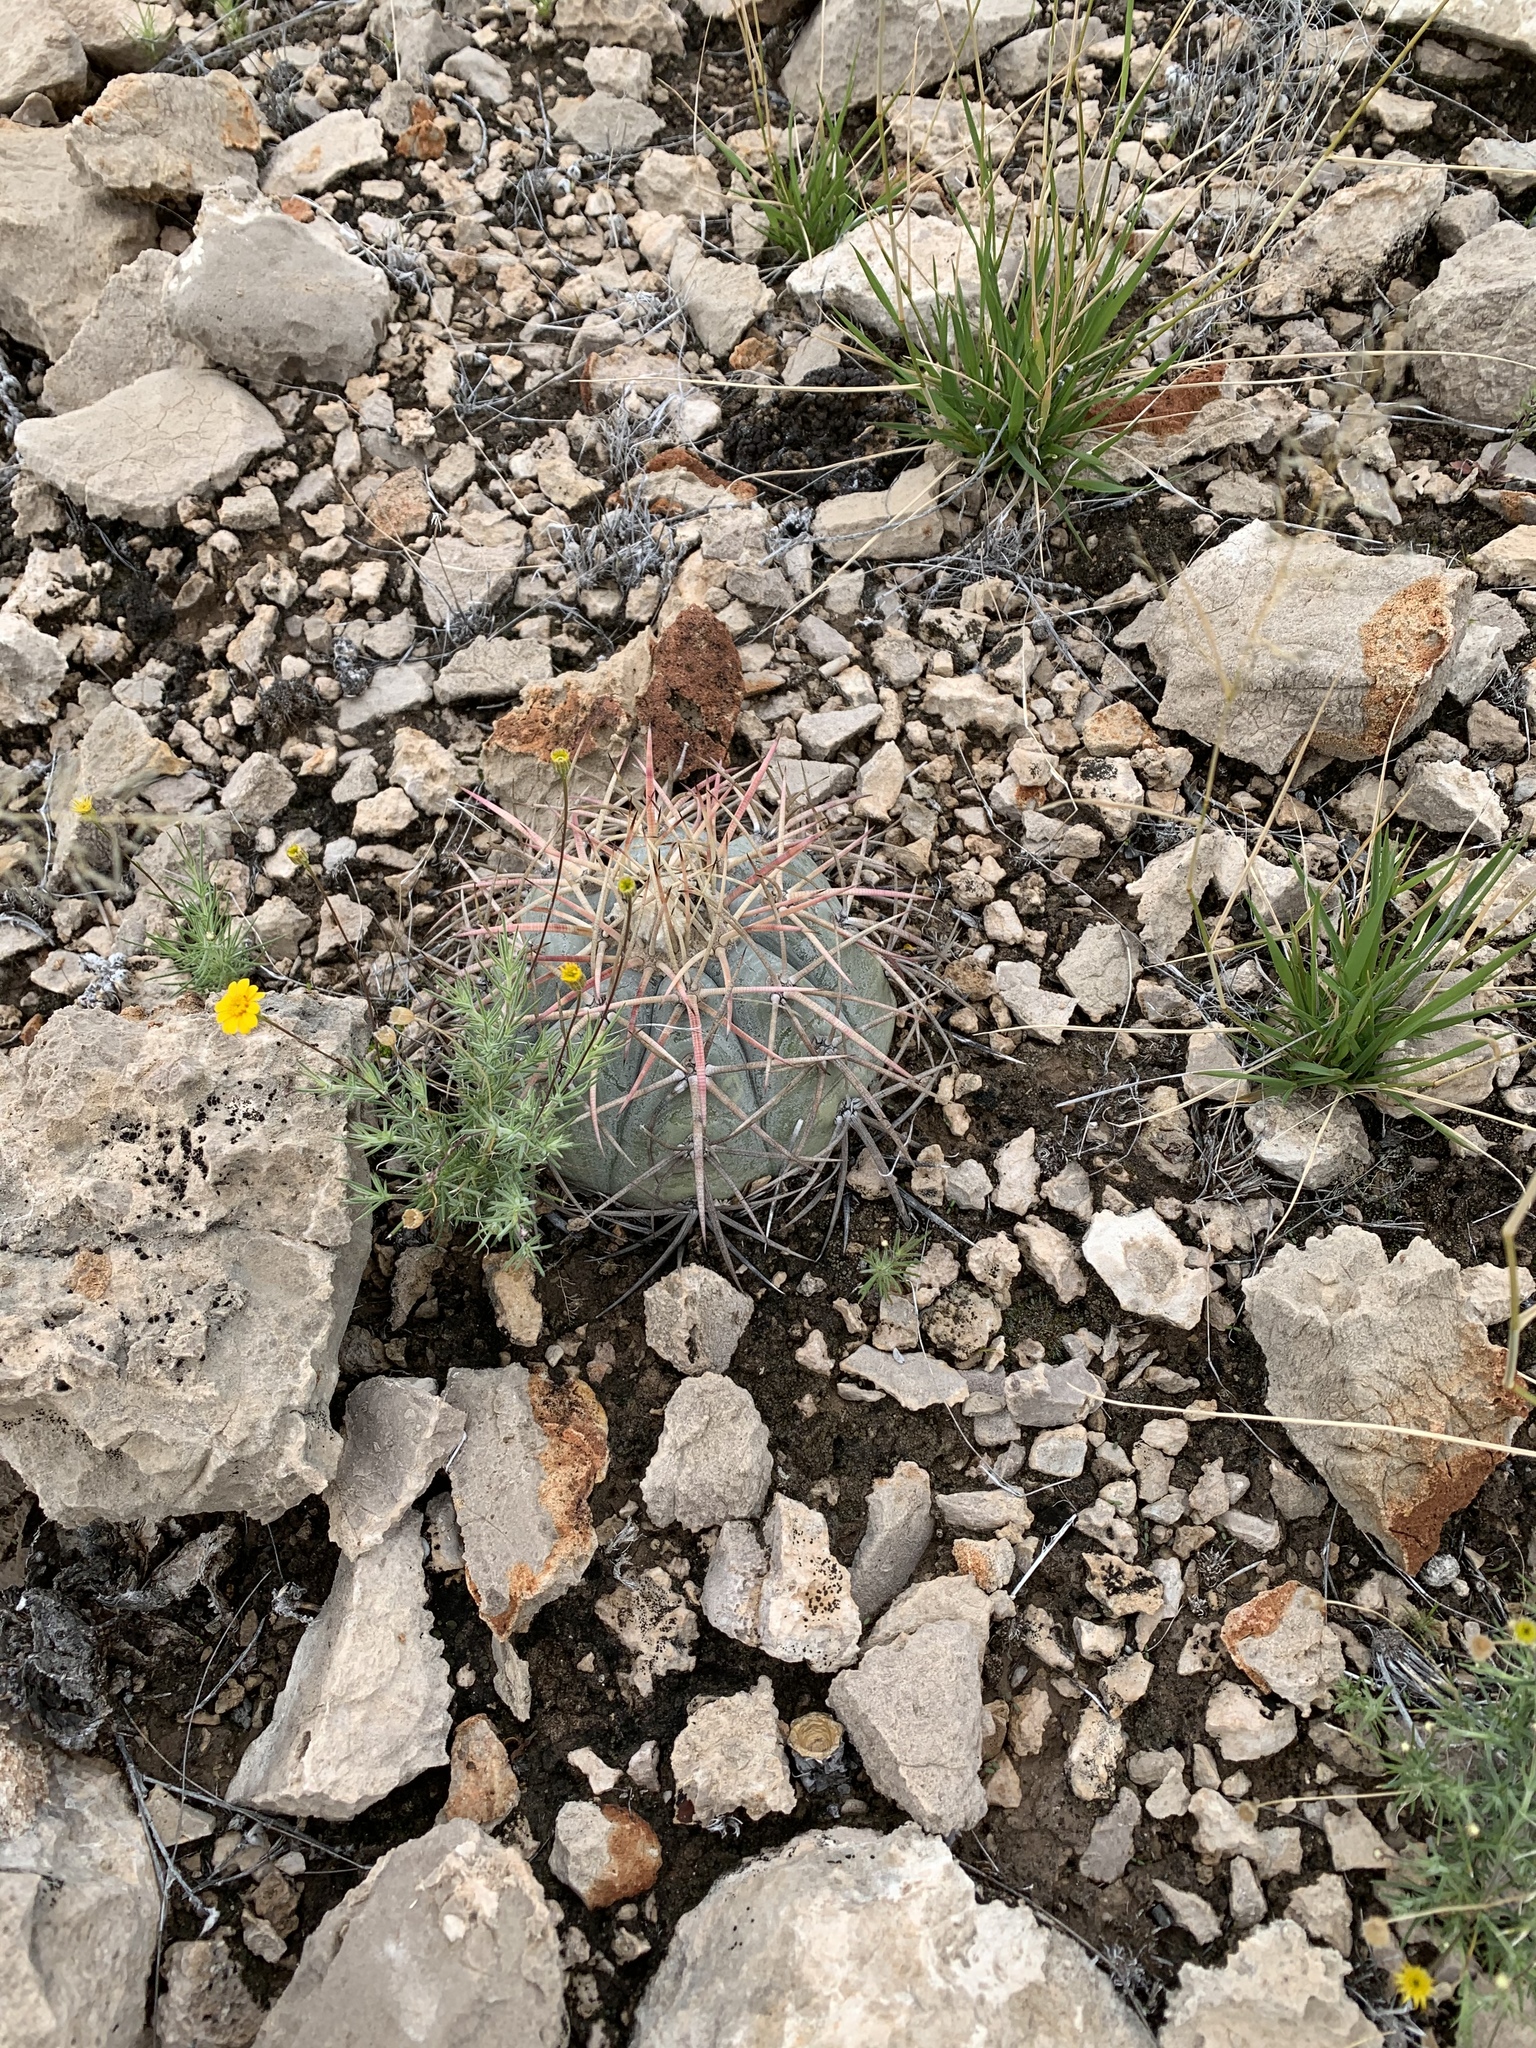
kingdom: Plantae
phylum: Tracheophyta
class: Magnoliopsida
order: Caryophyllales
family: Cactaceae
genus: Echinocactus
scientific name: Echinocactus horizonthalonius
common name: Devilshead
